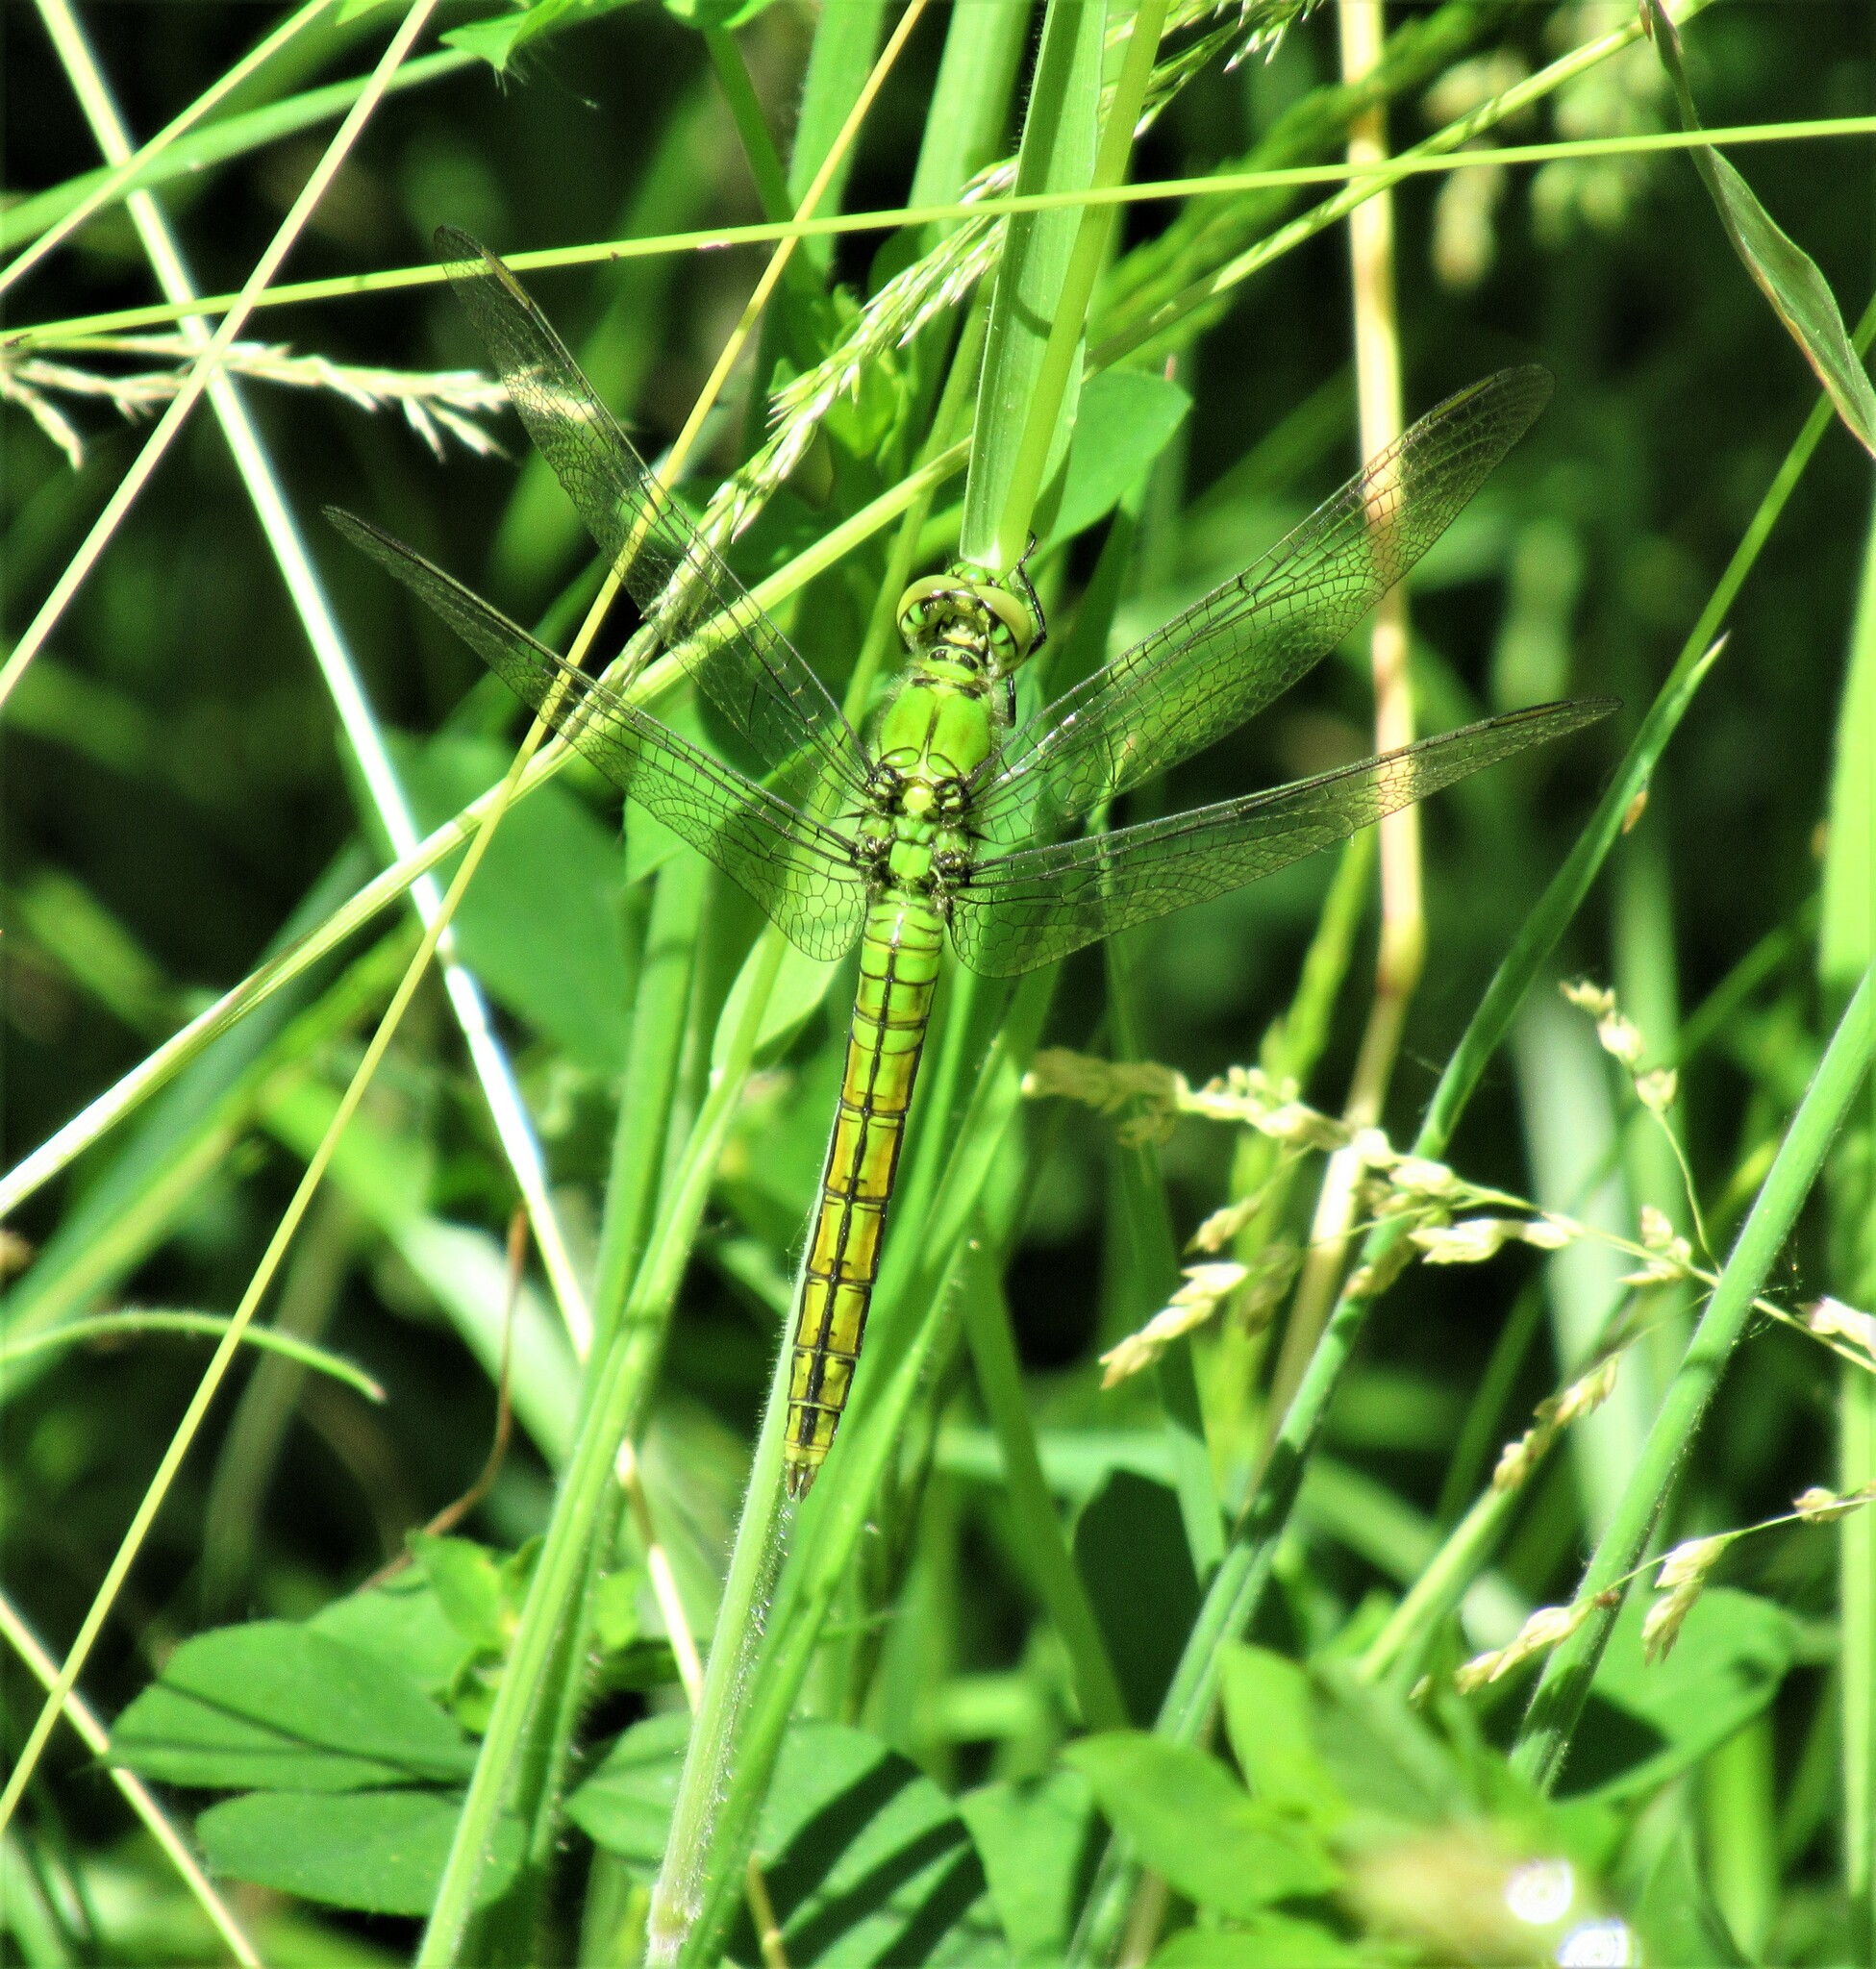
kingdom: Animalia
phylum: Arthropoda
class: Insecta
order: Odonata
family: Libellulidae
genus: Erythemis
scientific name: Erythemis collocata
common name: Western pondhawk
